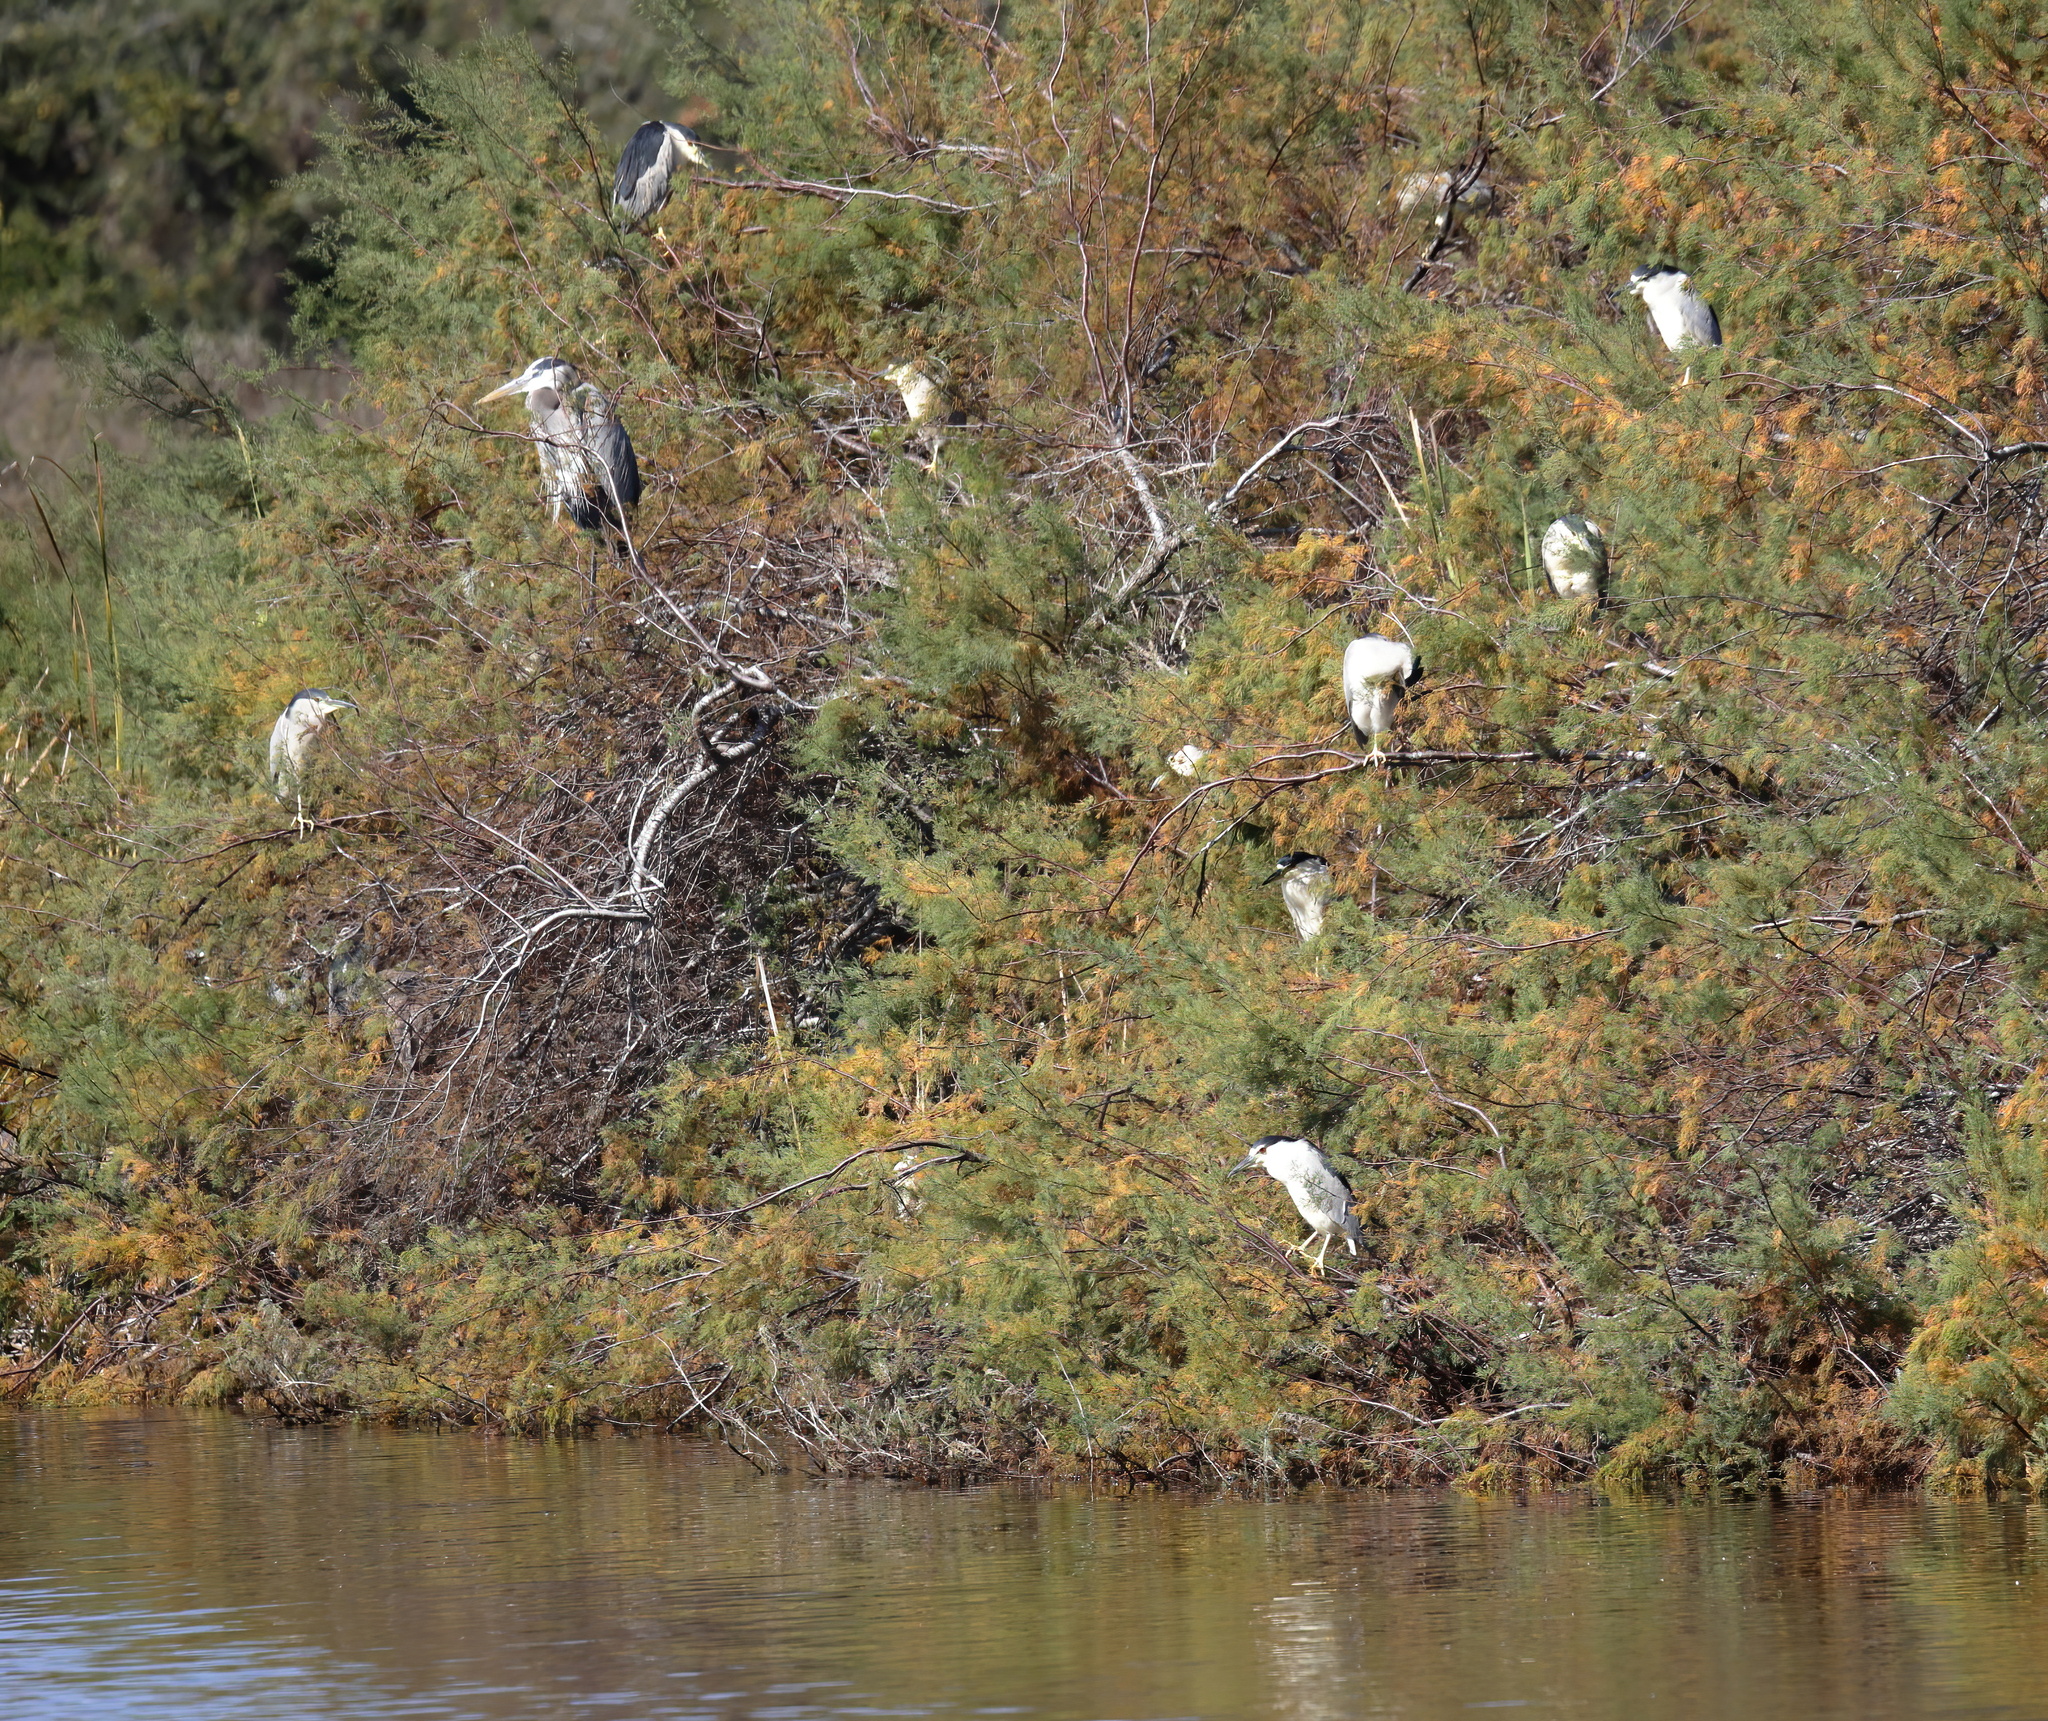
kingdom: Animalia
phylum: Chordata
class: Aves
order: Pelecaniformes
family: Ardeidae
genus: Nycticorax
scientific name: Nycticorax nycticorax
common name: Black-crowned night heron
